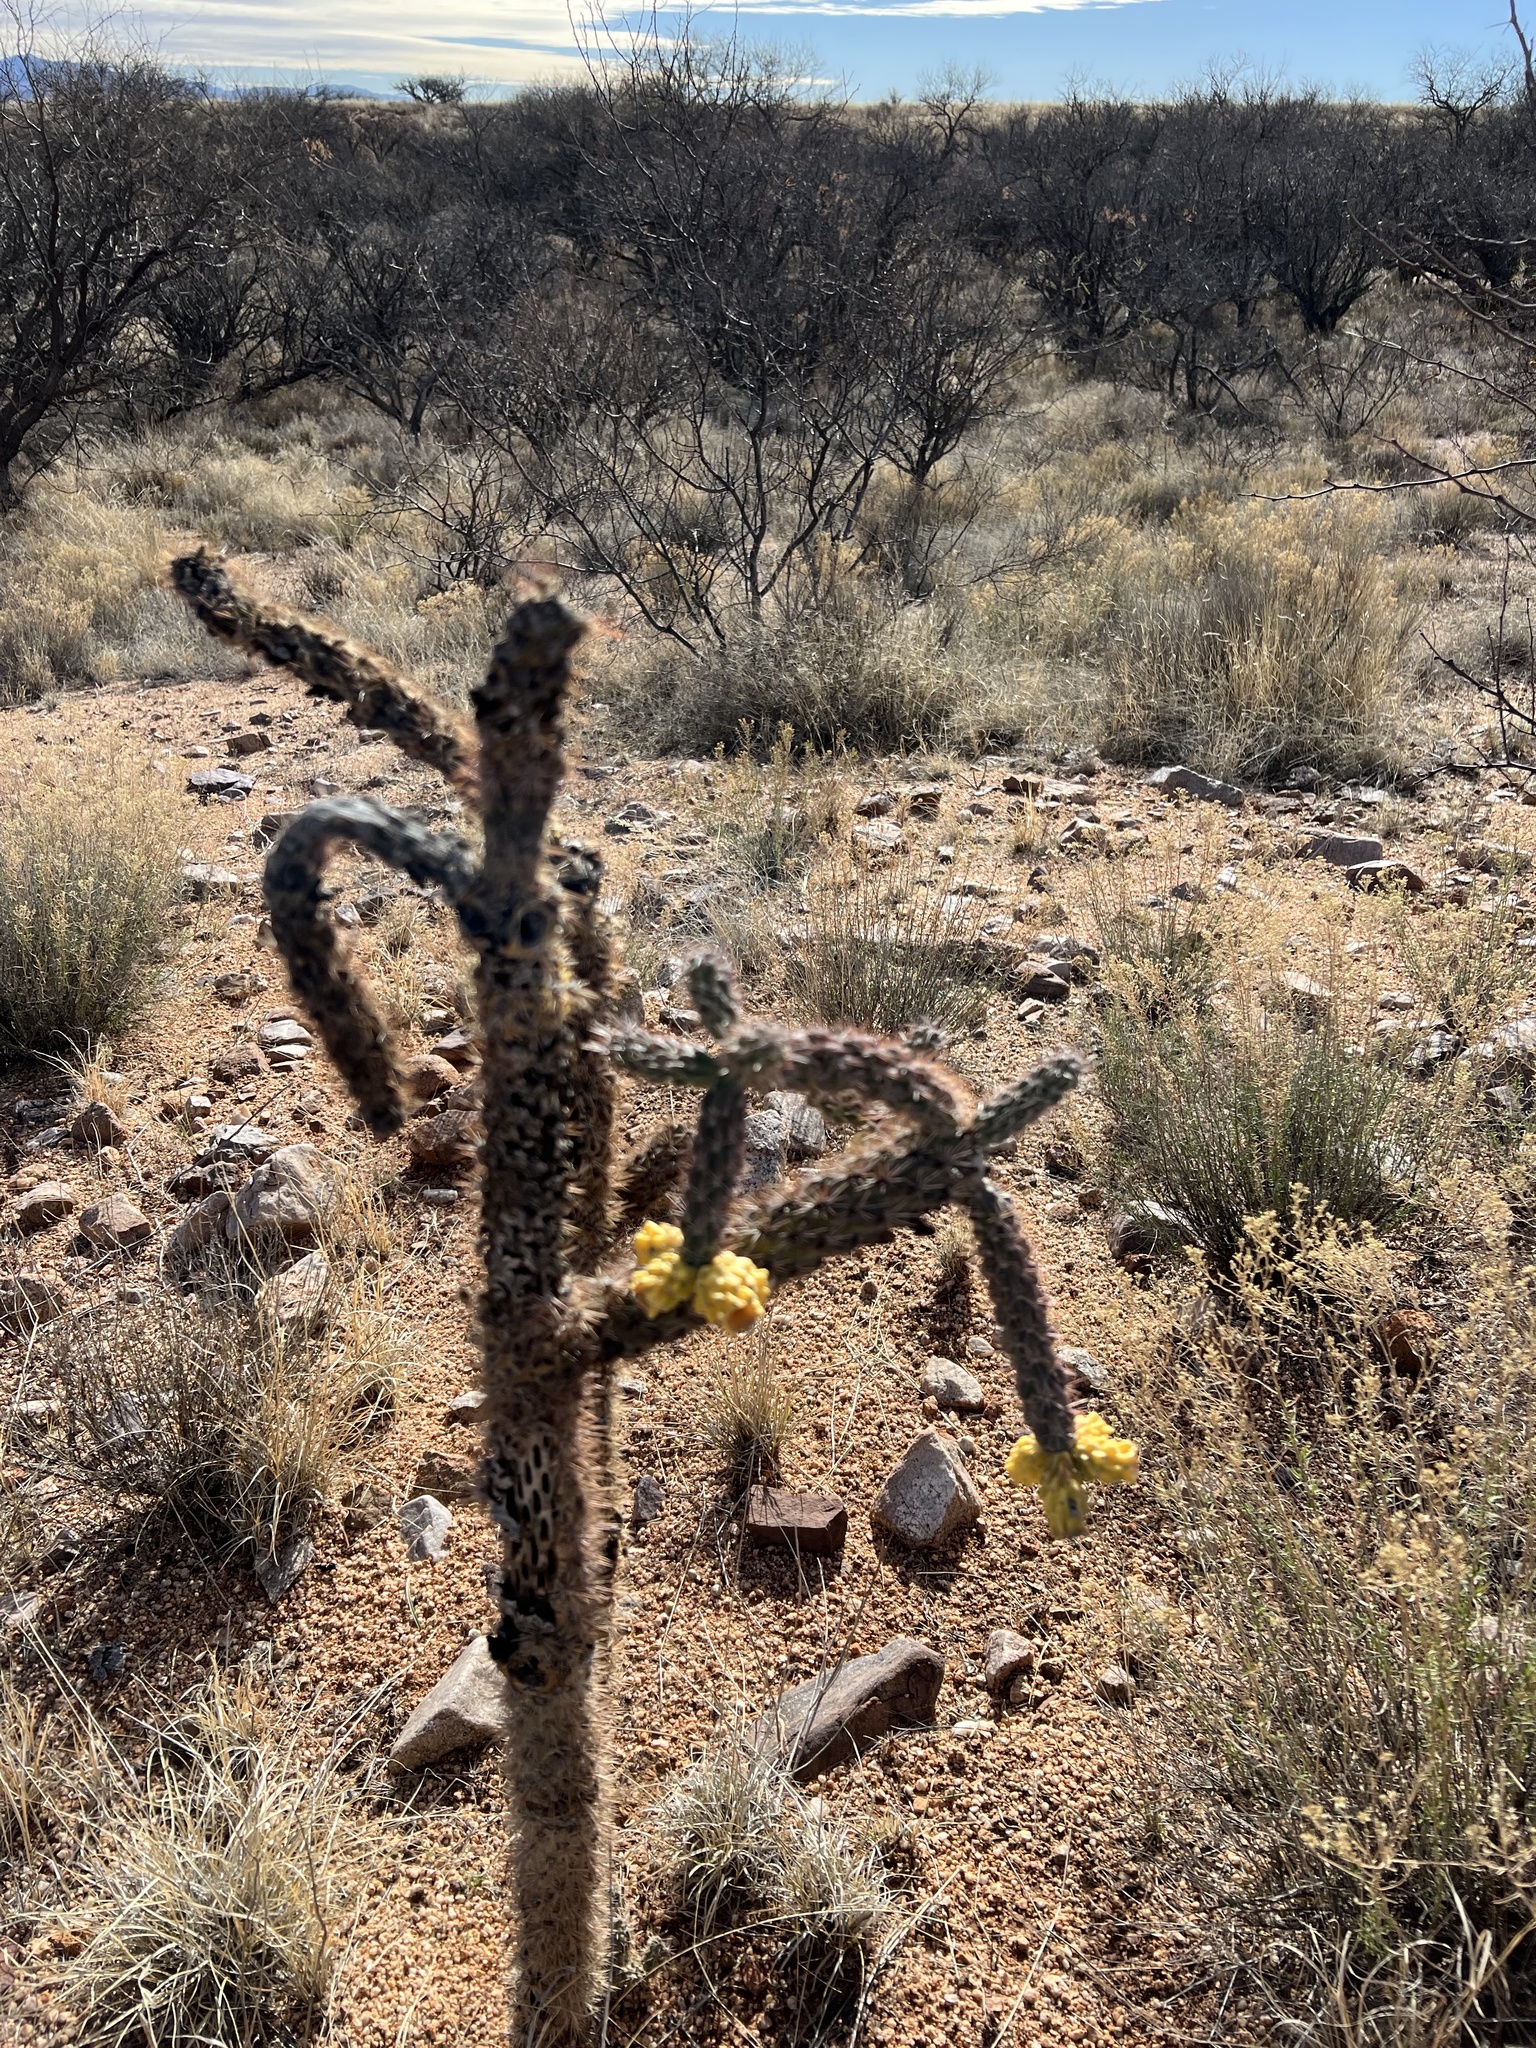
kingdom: Plantae
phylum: Tracheophyta
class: Magnoliopsida
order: Caryophyllales
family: Cactaceae
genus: Cylindropuntia
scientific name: Cylindropuntia imbricata
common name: Candelabrum cactus
